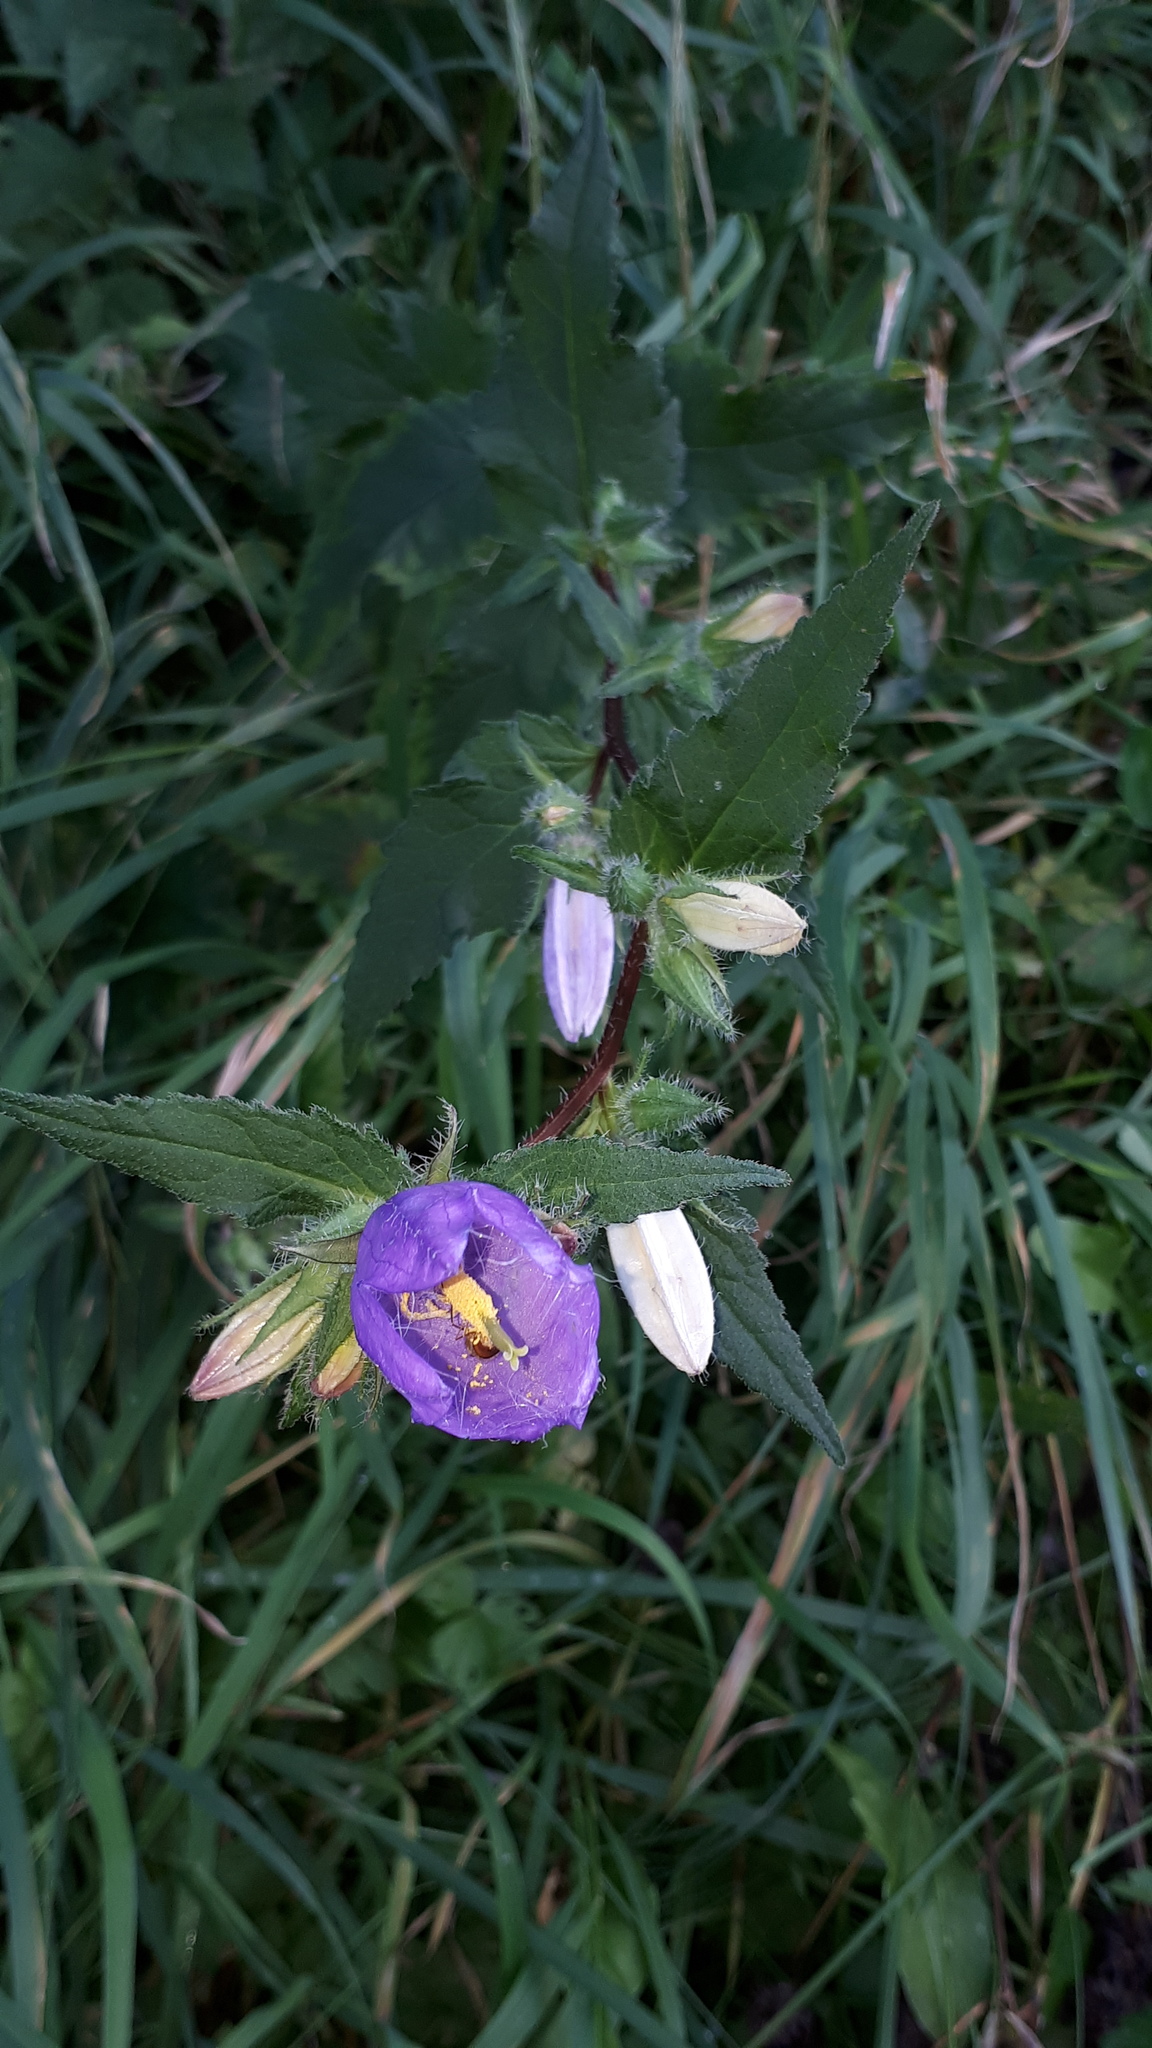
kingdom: Plantae
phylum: Tracheophyta
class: Magnoliopsida
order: Asterales
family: Campanulaceae
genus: Campanula
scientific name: Campanula trachelium
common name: Nettle-leaved bellflower
